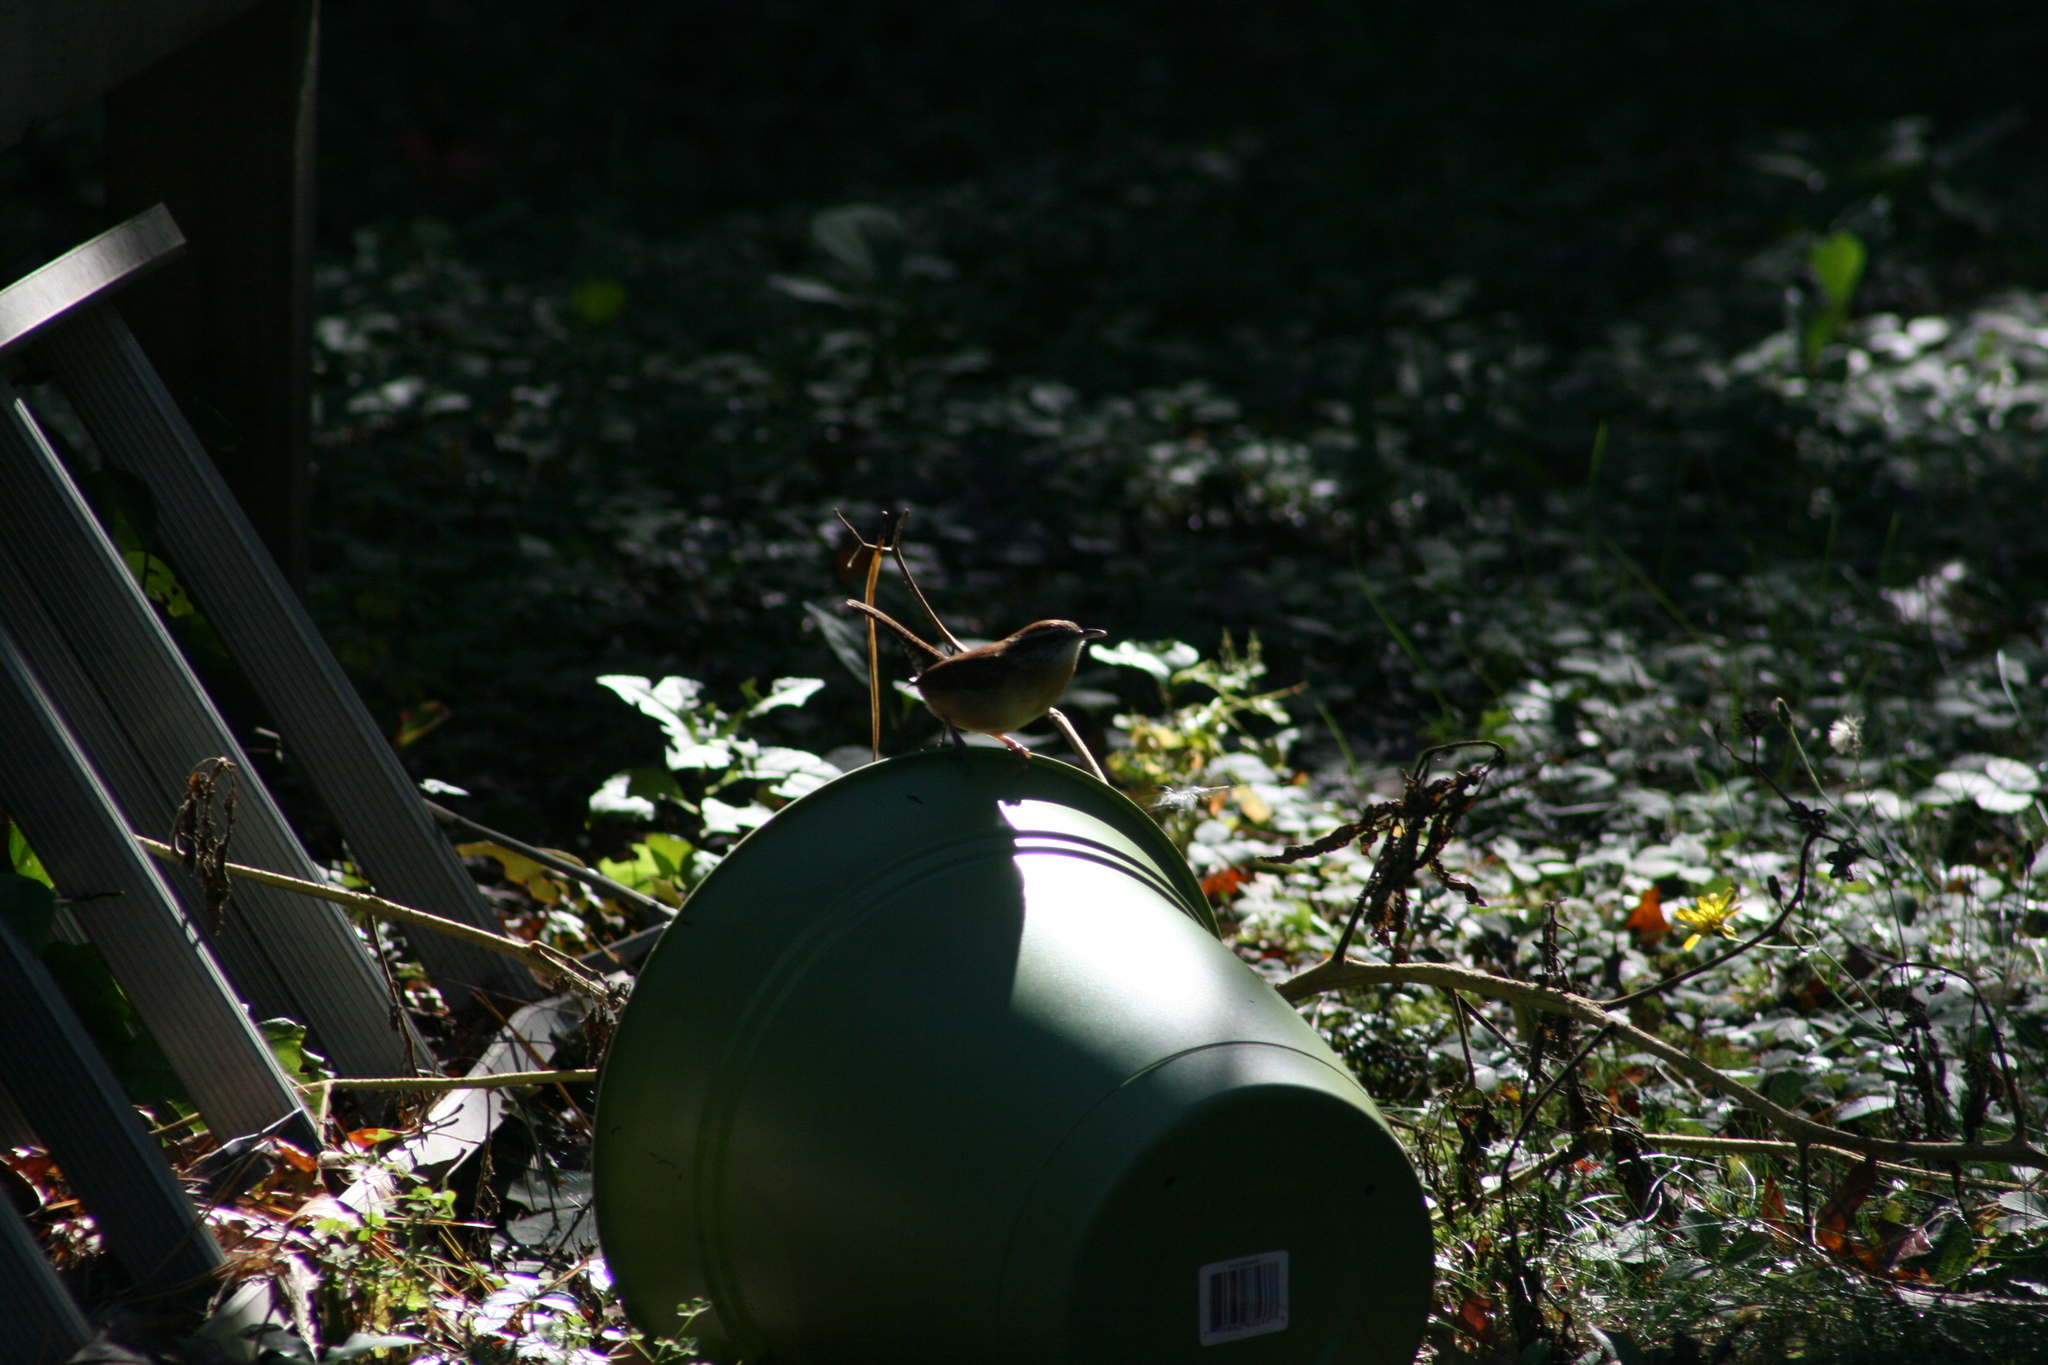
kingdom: Animalia
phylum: Chordata
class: Aves
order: Passeriformes
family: Troglodytidae
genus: Thryothorus
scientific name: Thryothorus ludovicianus
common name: Carolina wren
